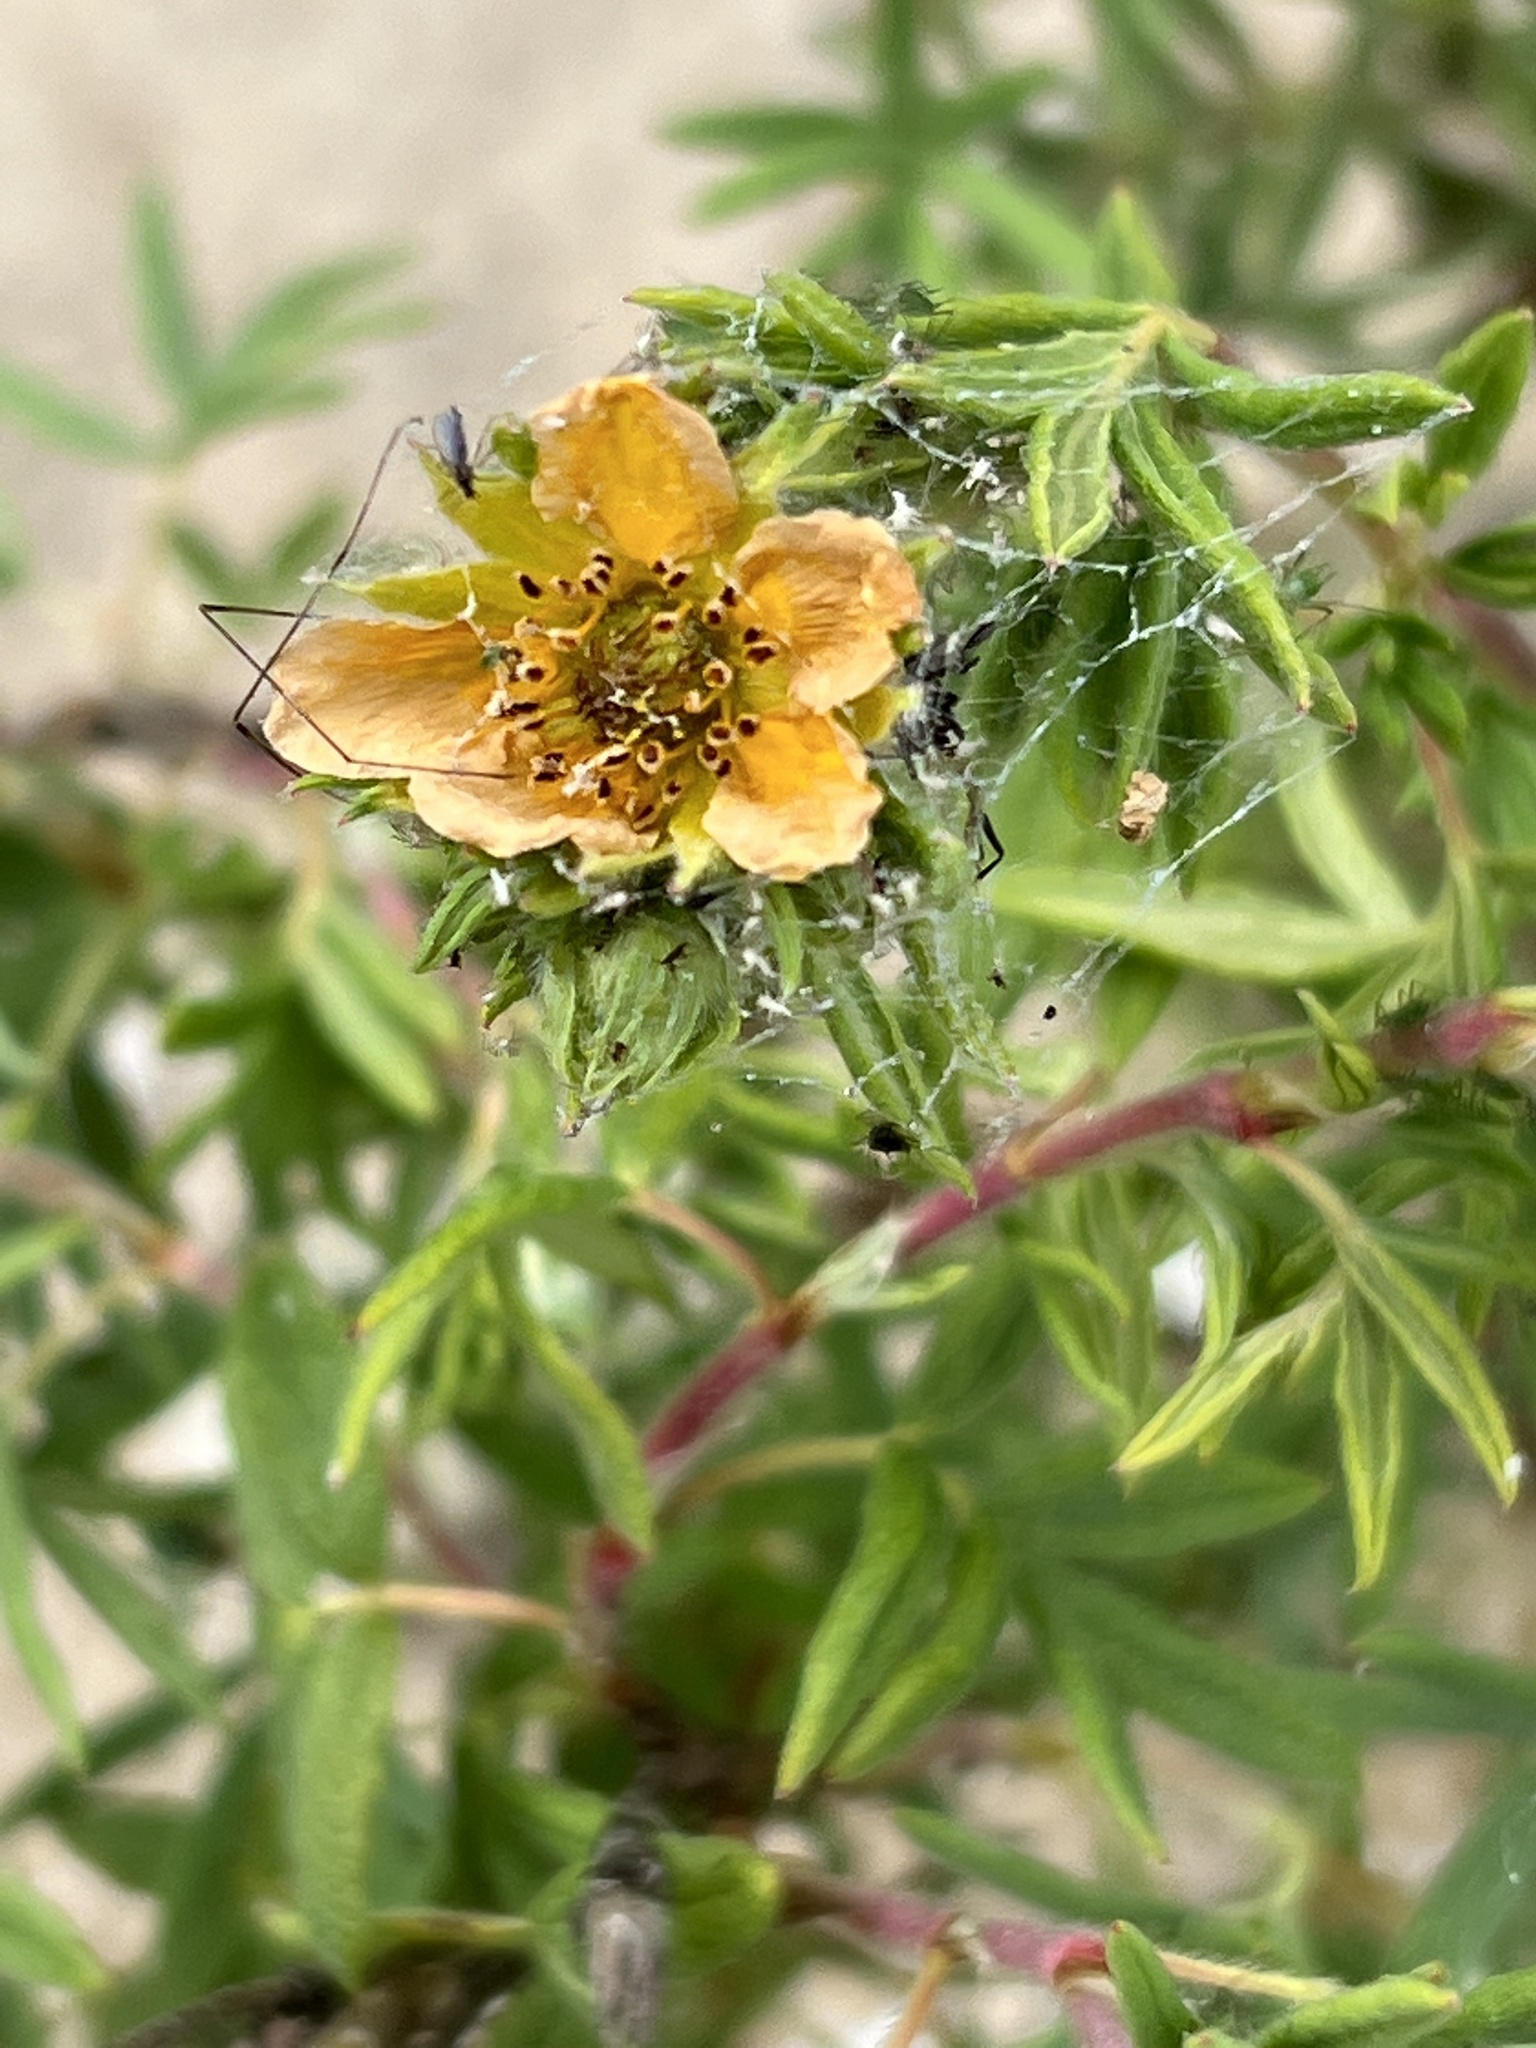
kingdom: Plantae
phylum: Tracheophyta
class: Magnoliopsida
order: Rosales
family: Rosaceae
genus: Dasiphora
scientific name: Dasiphora fruticosa
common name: Shrubby cinquefoil
